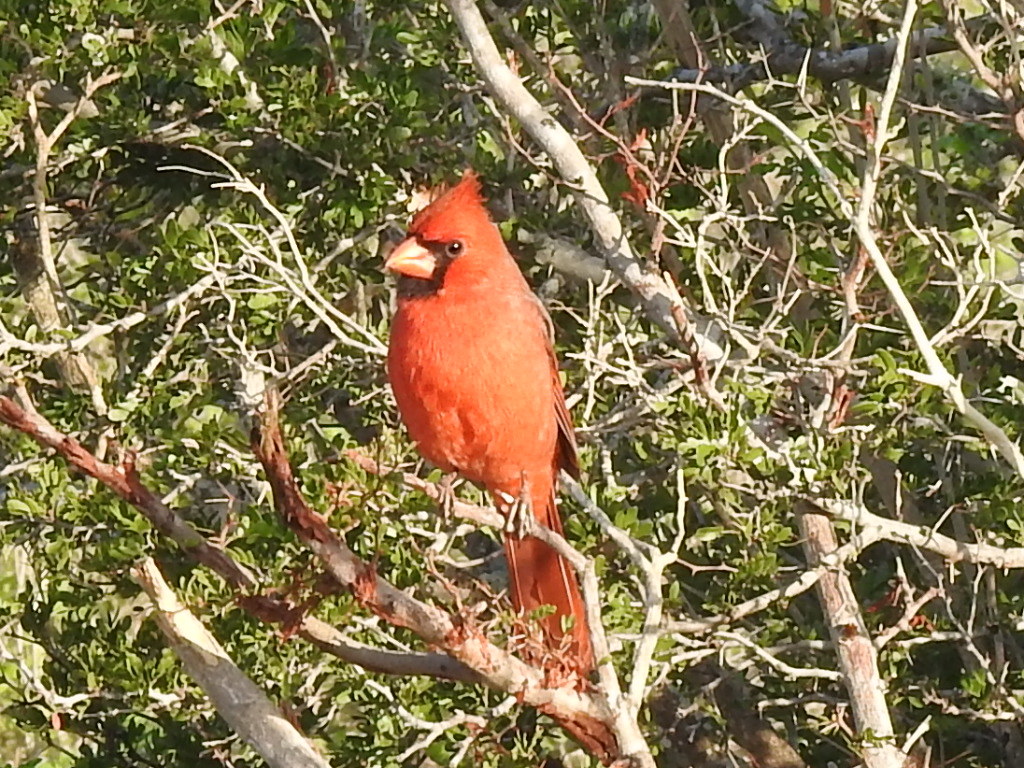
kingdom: Animalia
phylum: Chordata
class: Aves
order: Passeriformes
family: Cardinalidae
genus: Cardinalis
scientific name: Cardinalis cardinalis
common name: Northern cardinal
